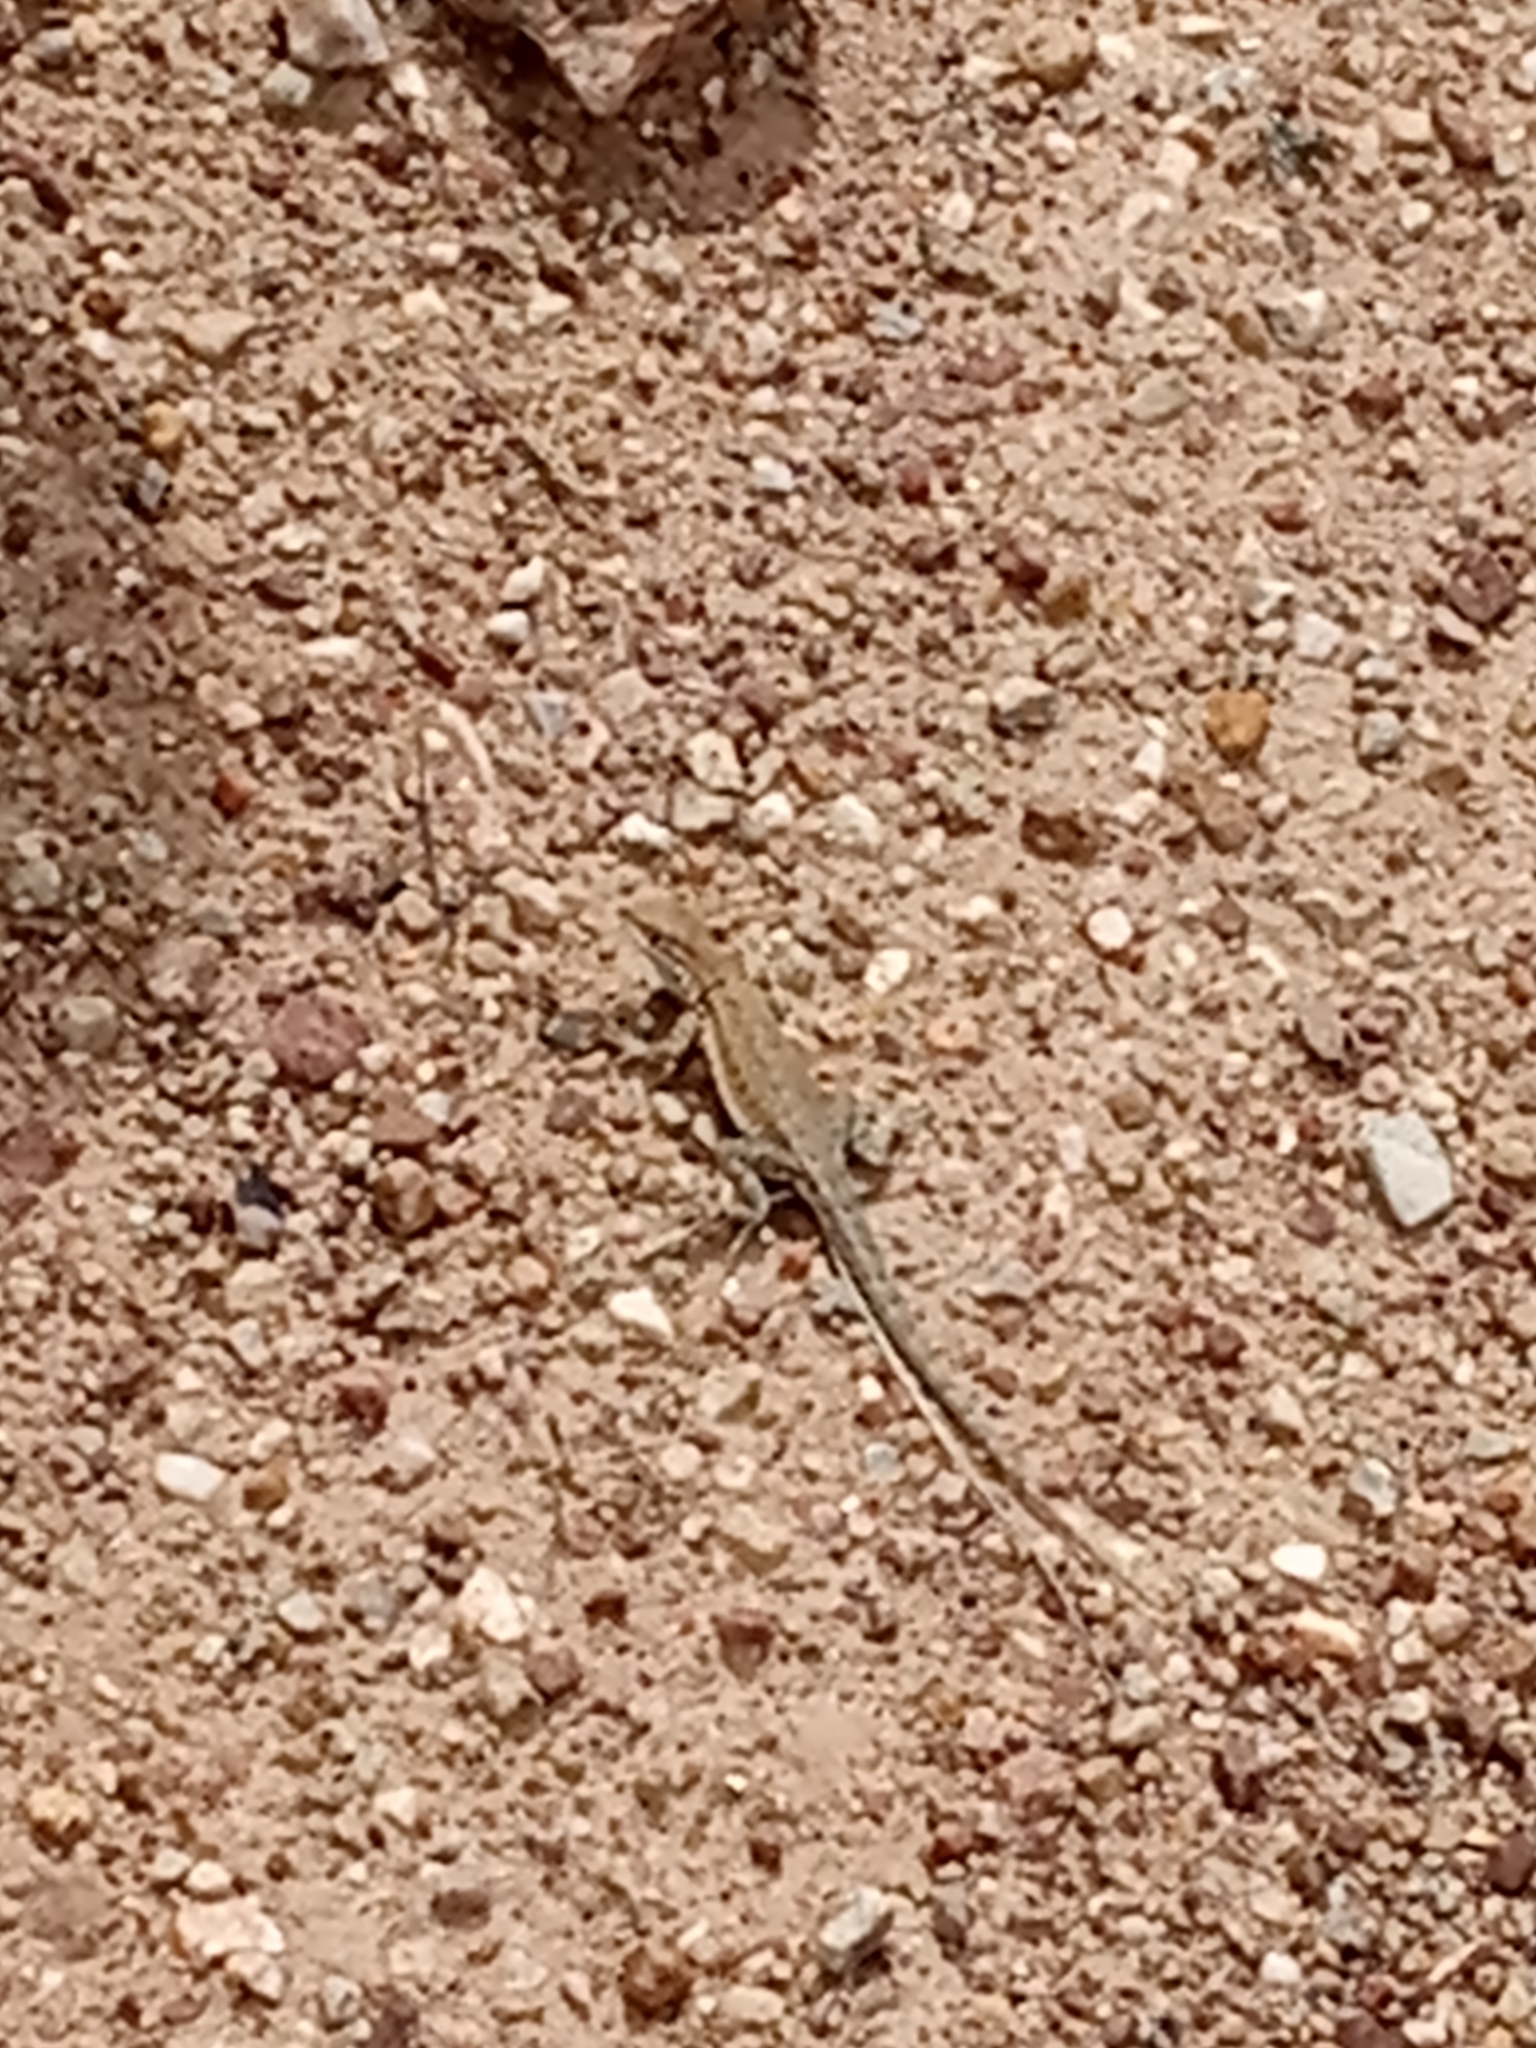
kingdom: Animalia
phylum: Chordata
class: Squamata
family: Phrynosomatidae
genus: Uta
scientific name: Uta stansburiana
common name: Side-blotched lizard
